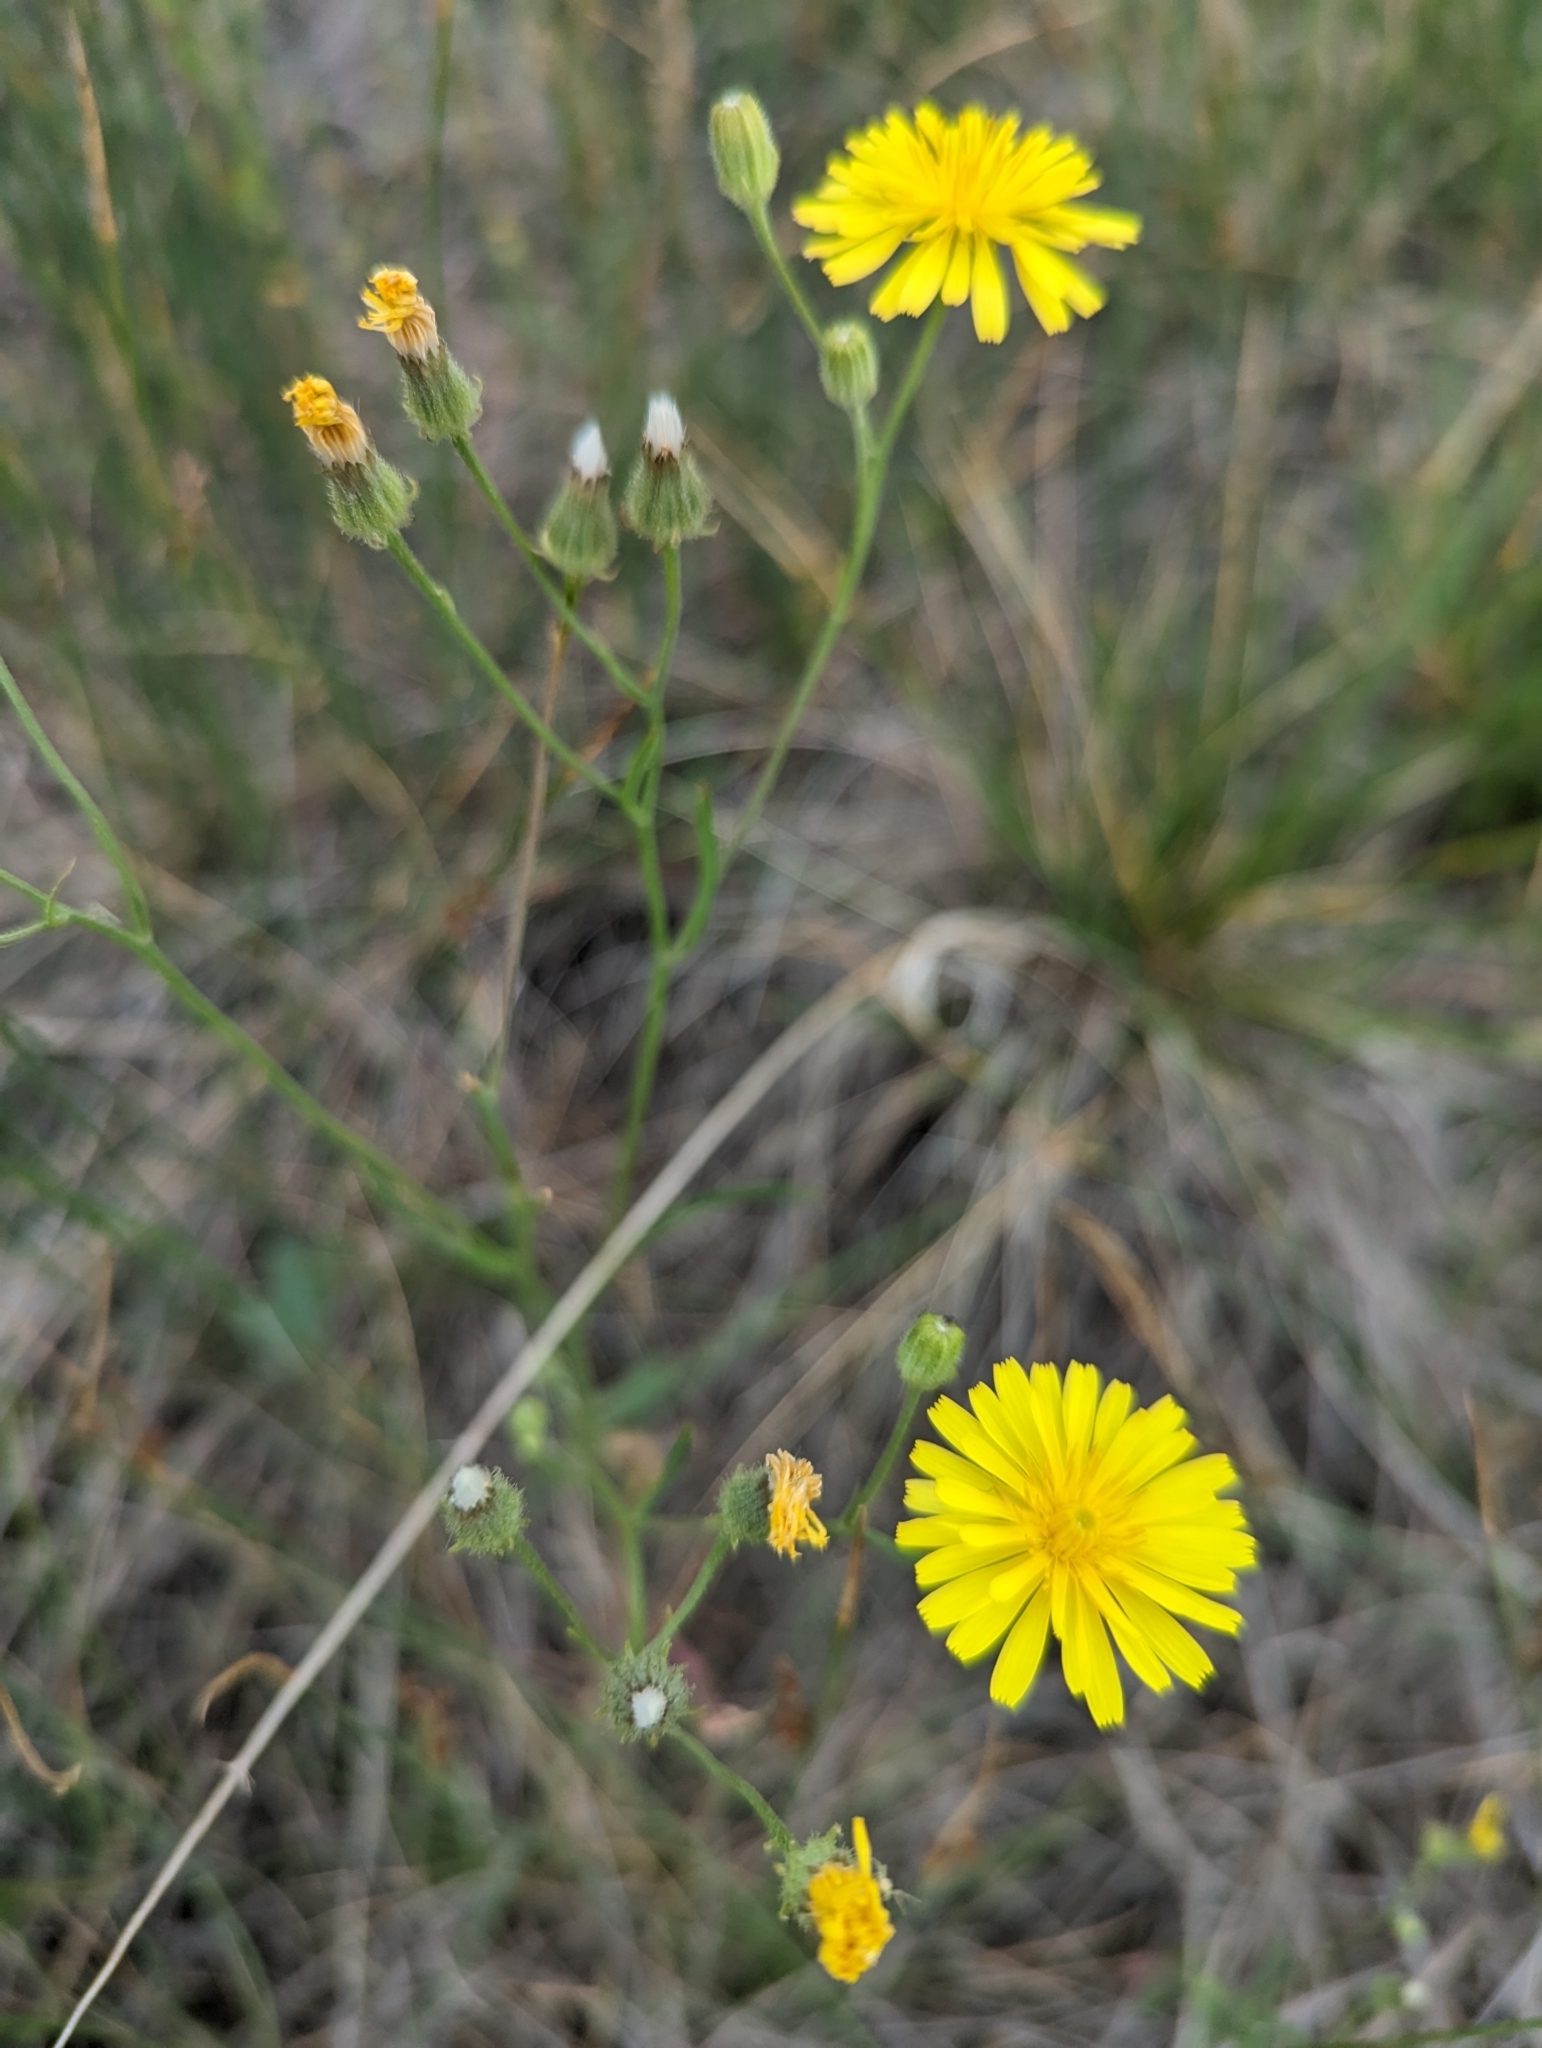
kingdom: Plantae
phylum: Tracheophyta
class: Magnoliopsida
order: Asterales
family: Asteraceae
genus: Crepis
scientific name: Crepis tectorum
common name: Narrow-leaved hawk's-beard
